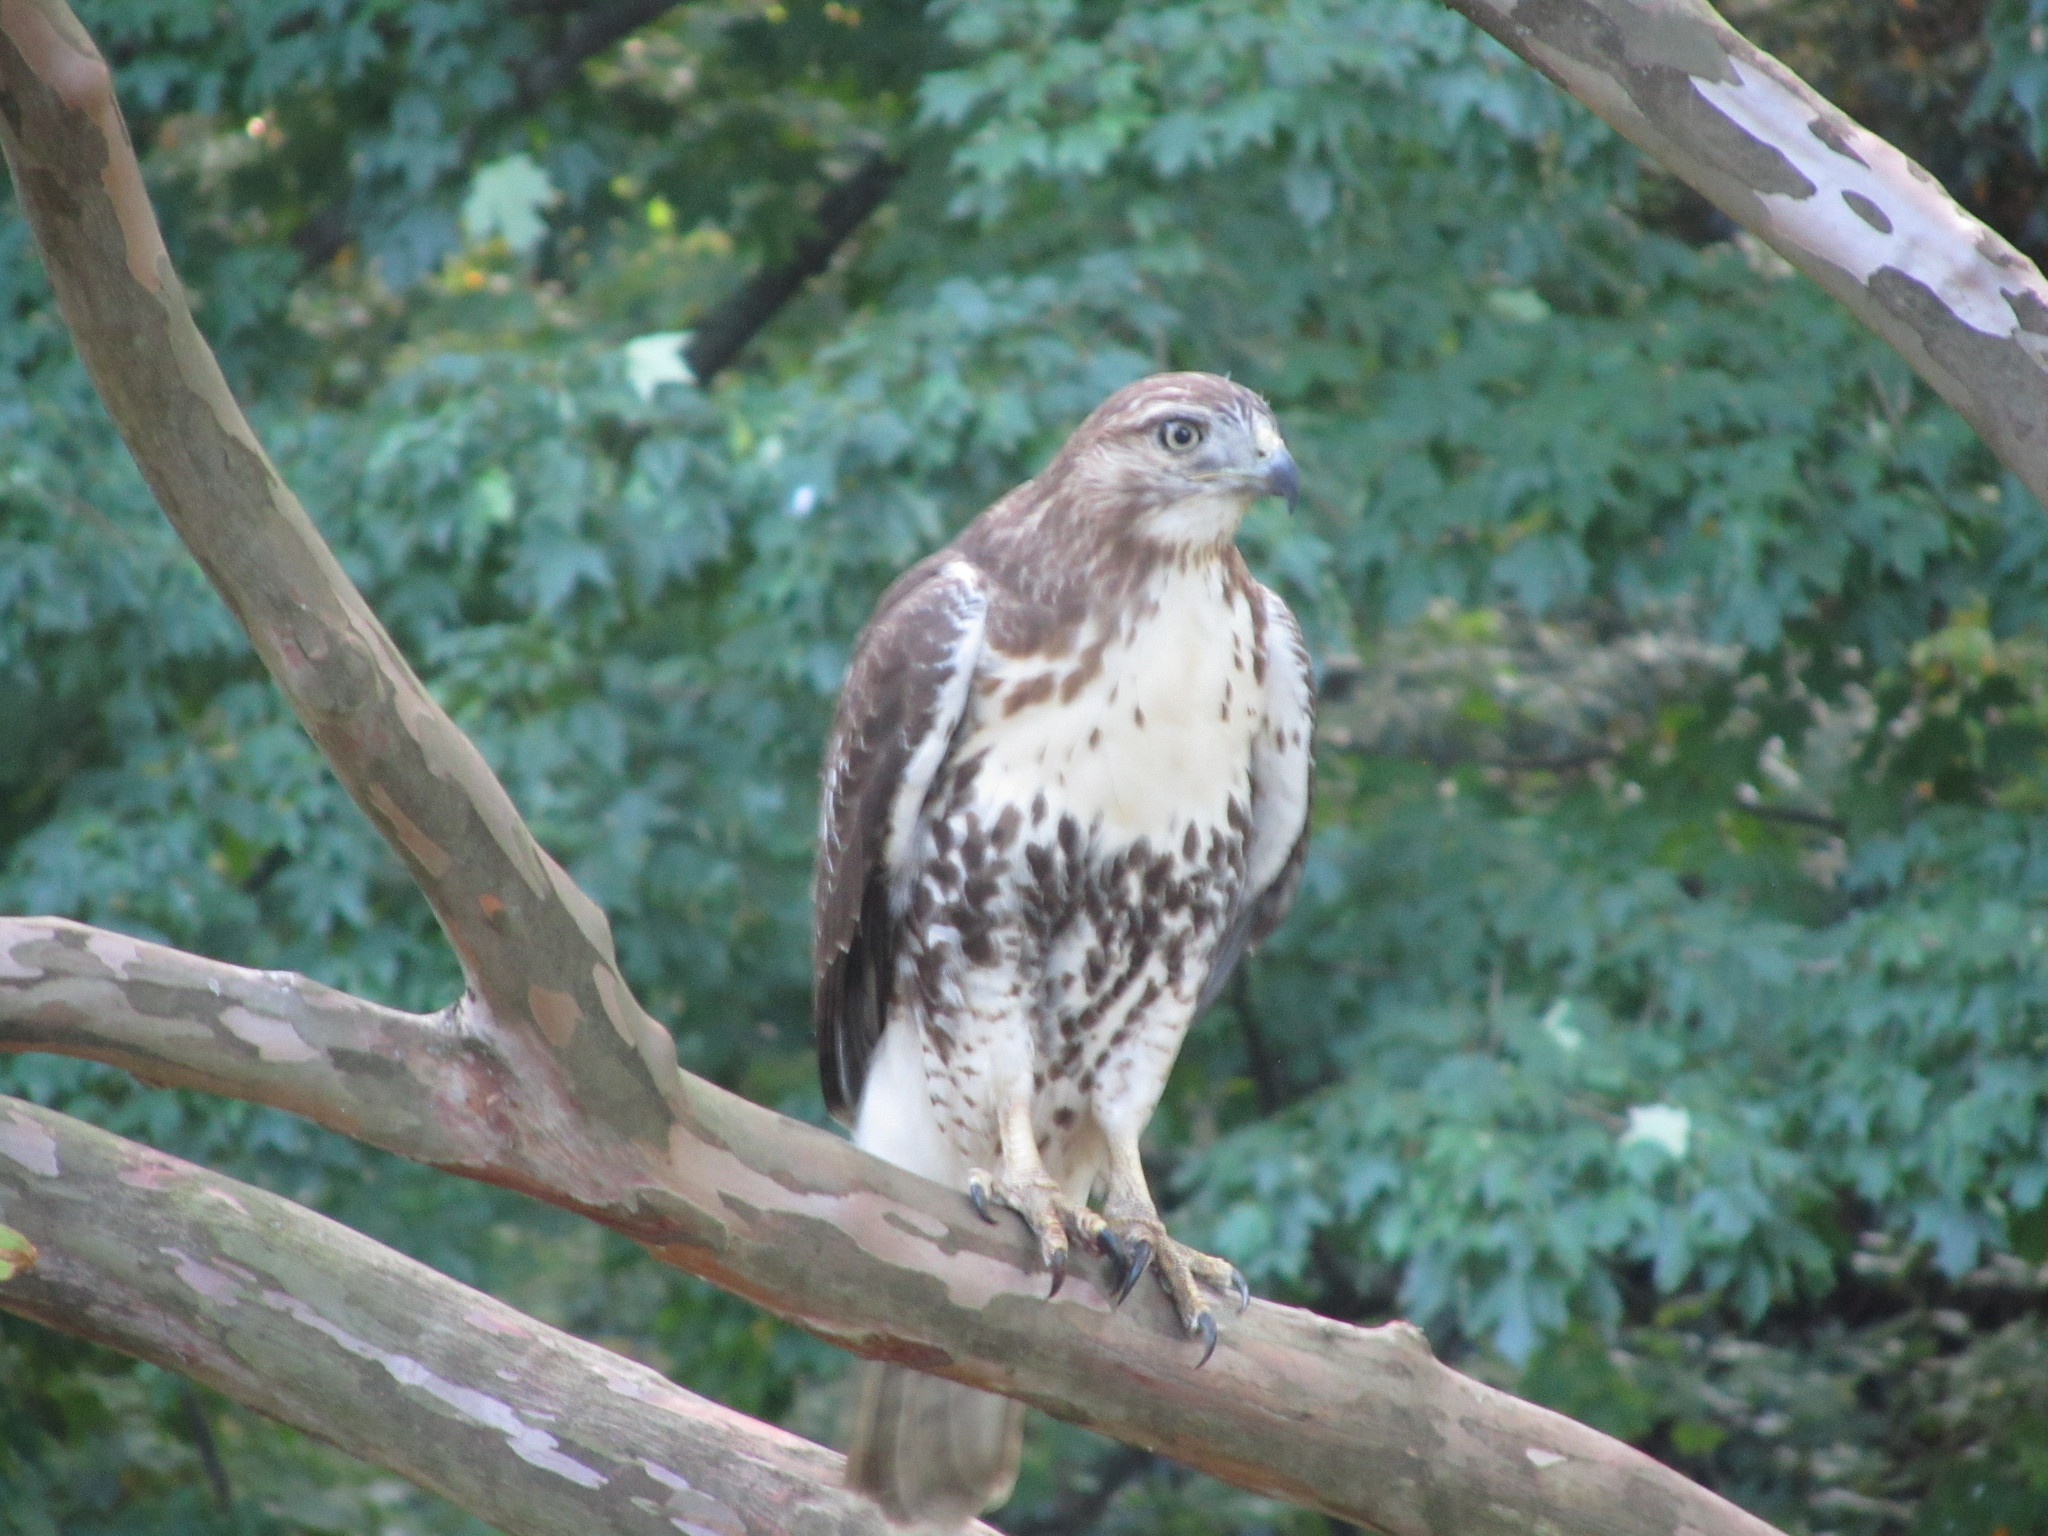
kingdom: Animalia
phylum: Chordata
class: Aves
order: Accipitriformes
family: Accipitridae
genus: Buteo
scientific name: Buteo jamaicensis
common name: Red-tailed hawk
